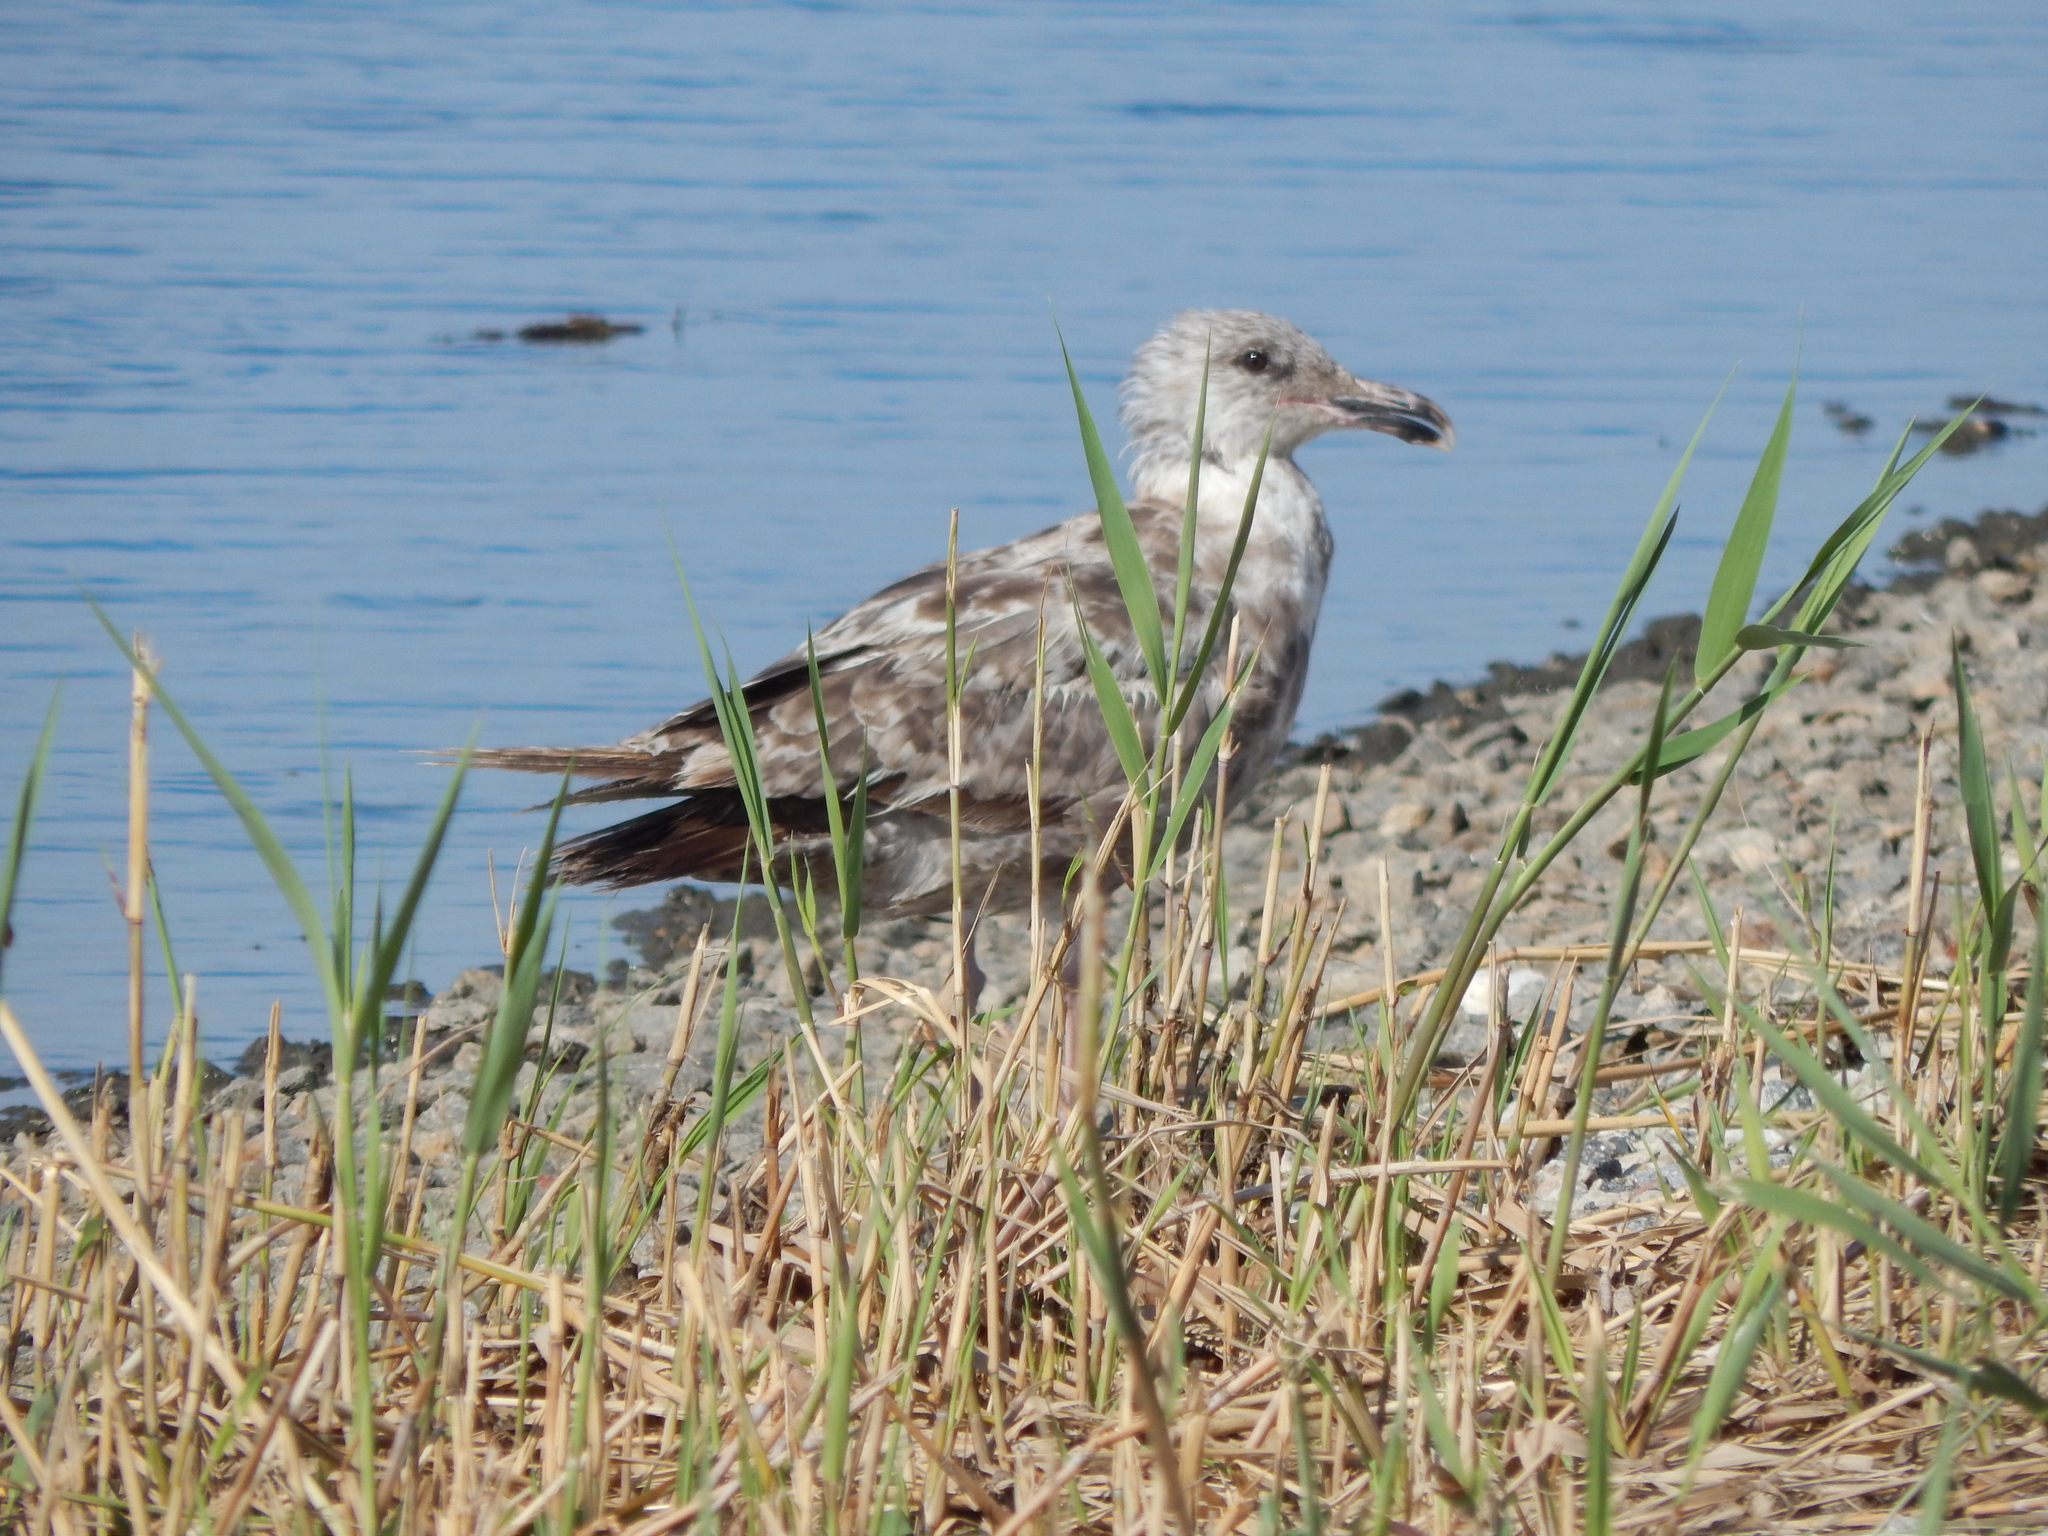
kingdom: Animalia
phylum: Chordata
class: Aves
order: Charadriiformes
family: Laridae
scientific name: Laridae
